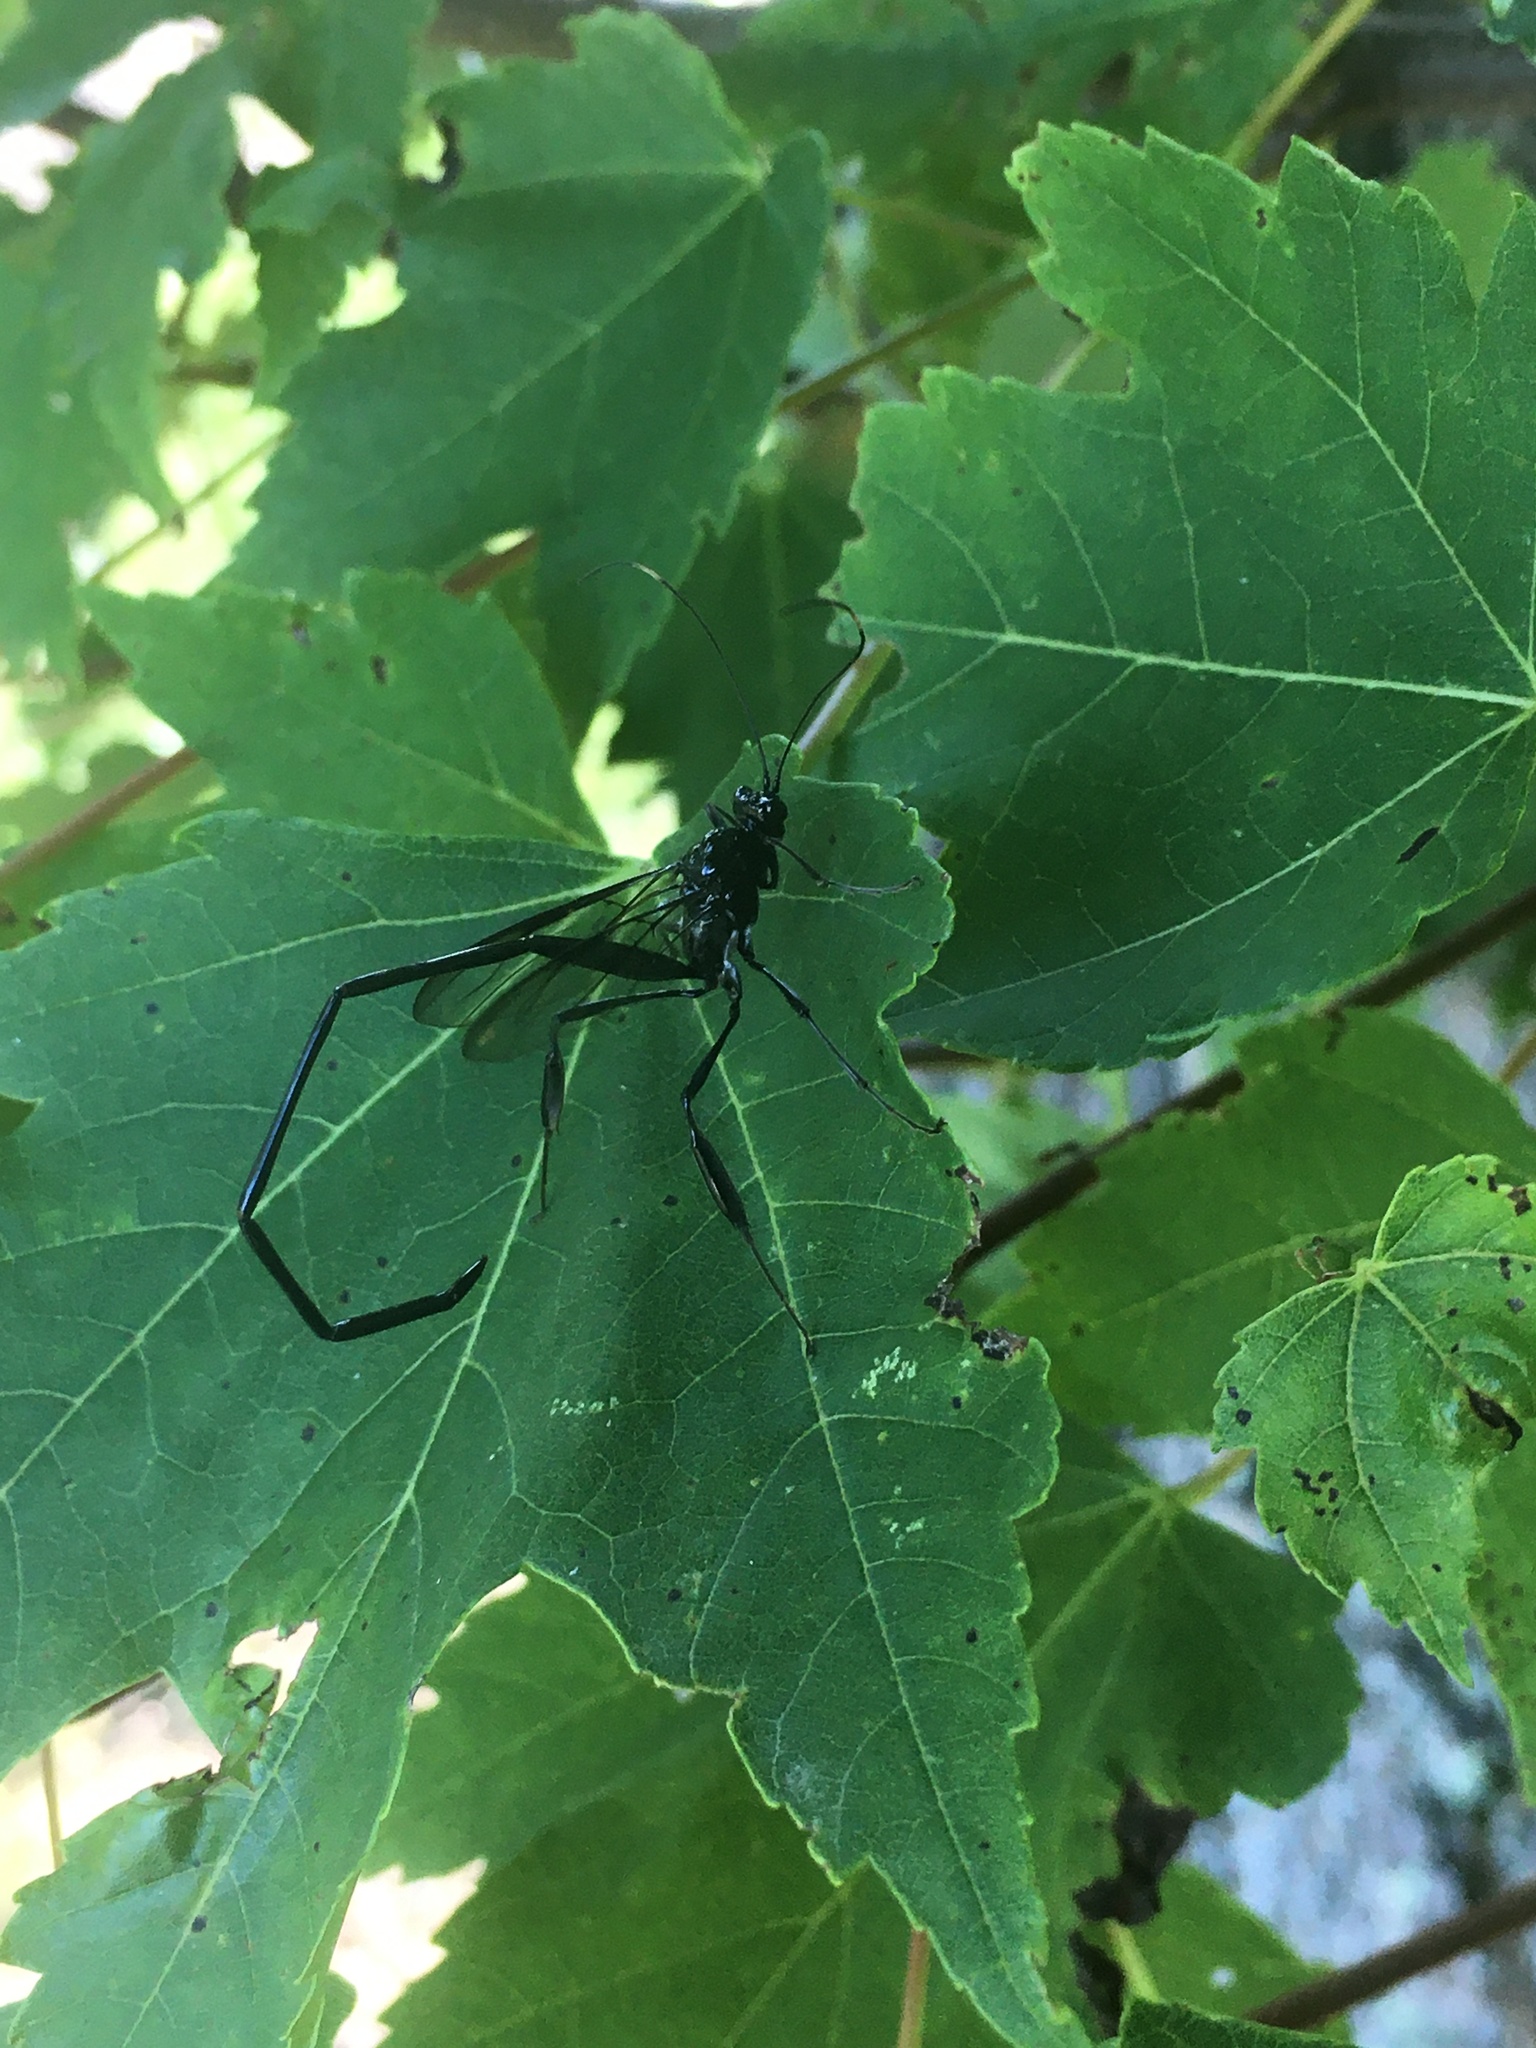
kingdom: Animalia
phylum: Arthropoda
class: Insecta
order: Hymenoptera
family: Pelecinidae
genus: Pelecinus
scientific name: Pelecinus polyturator
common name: American pelecinid wasp
